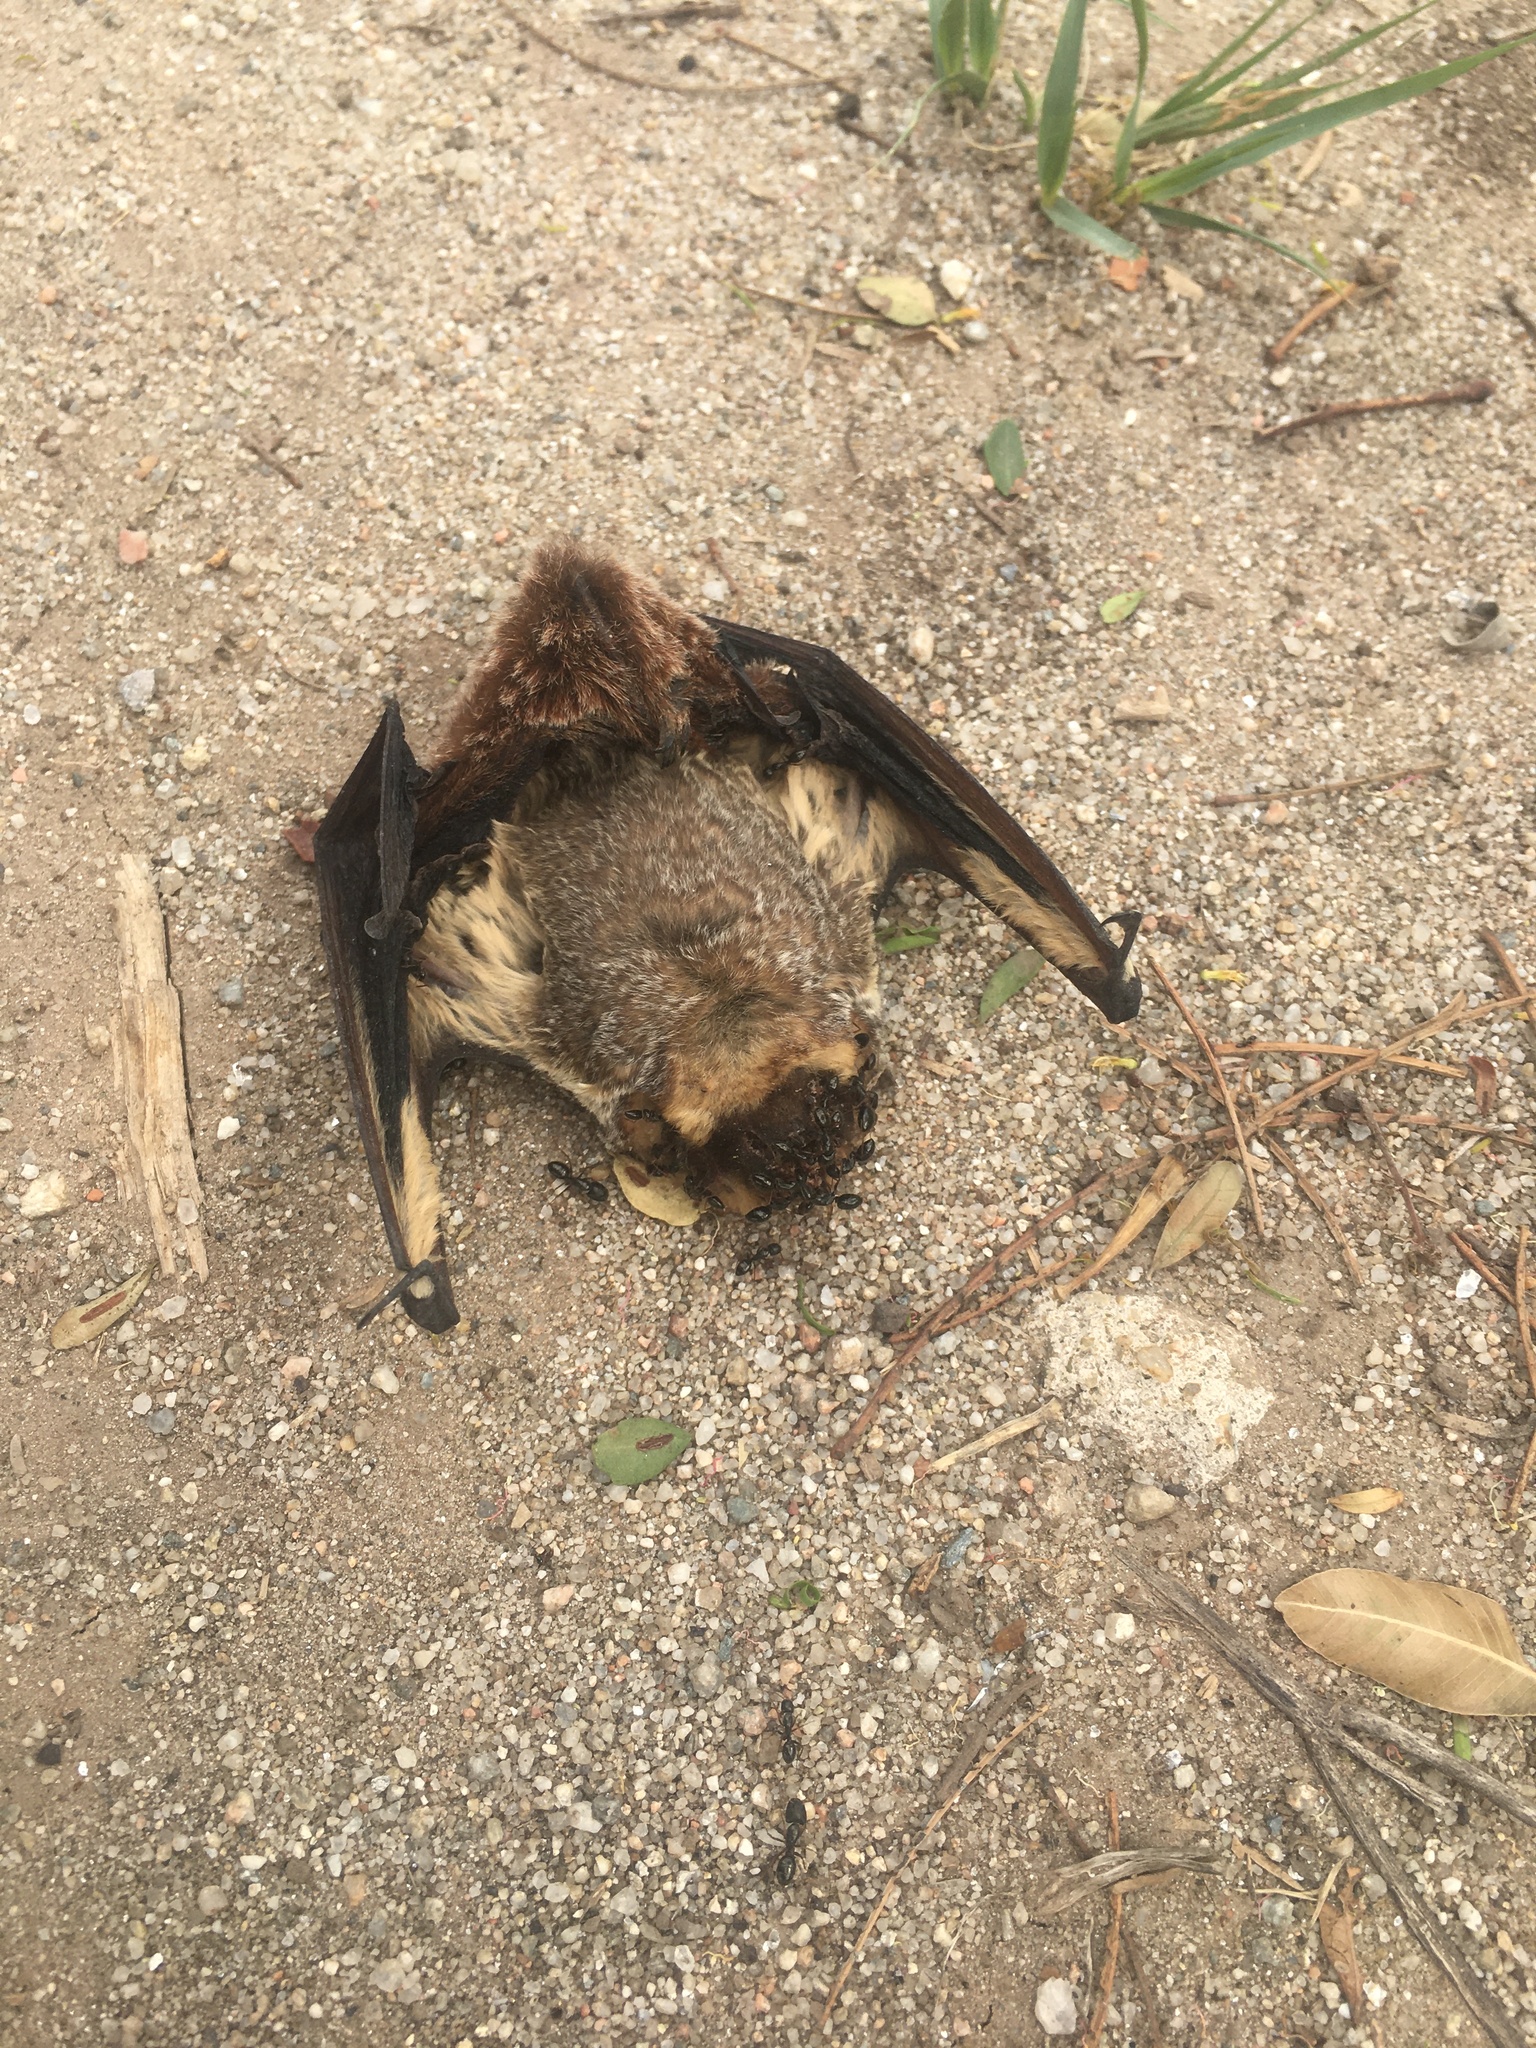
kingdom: Animalia
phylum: Chordata
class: Mammalia
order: Chiroptera
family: Vespertilionidae
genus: Aeorestes
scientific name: Aeorestes cinereus
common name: North american hoary bat
